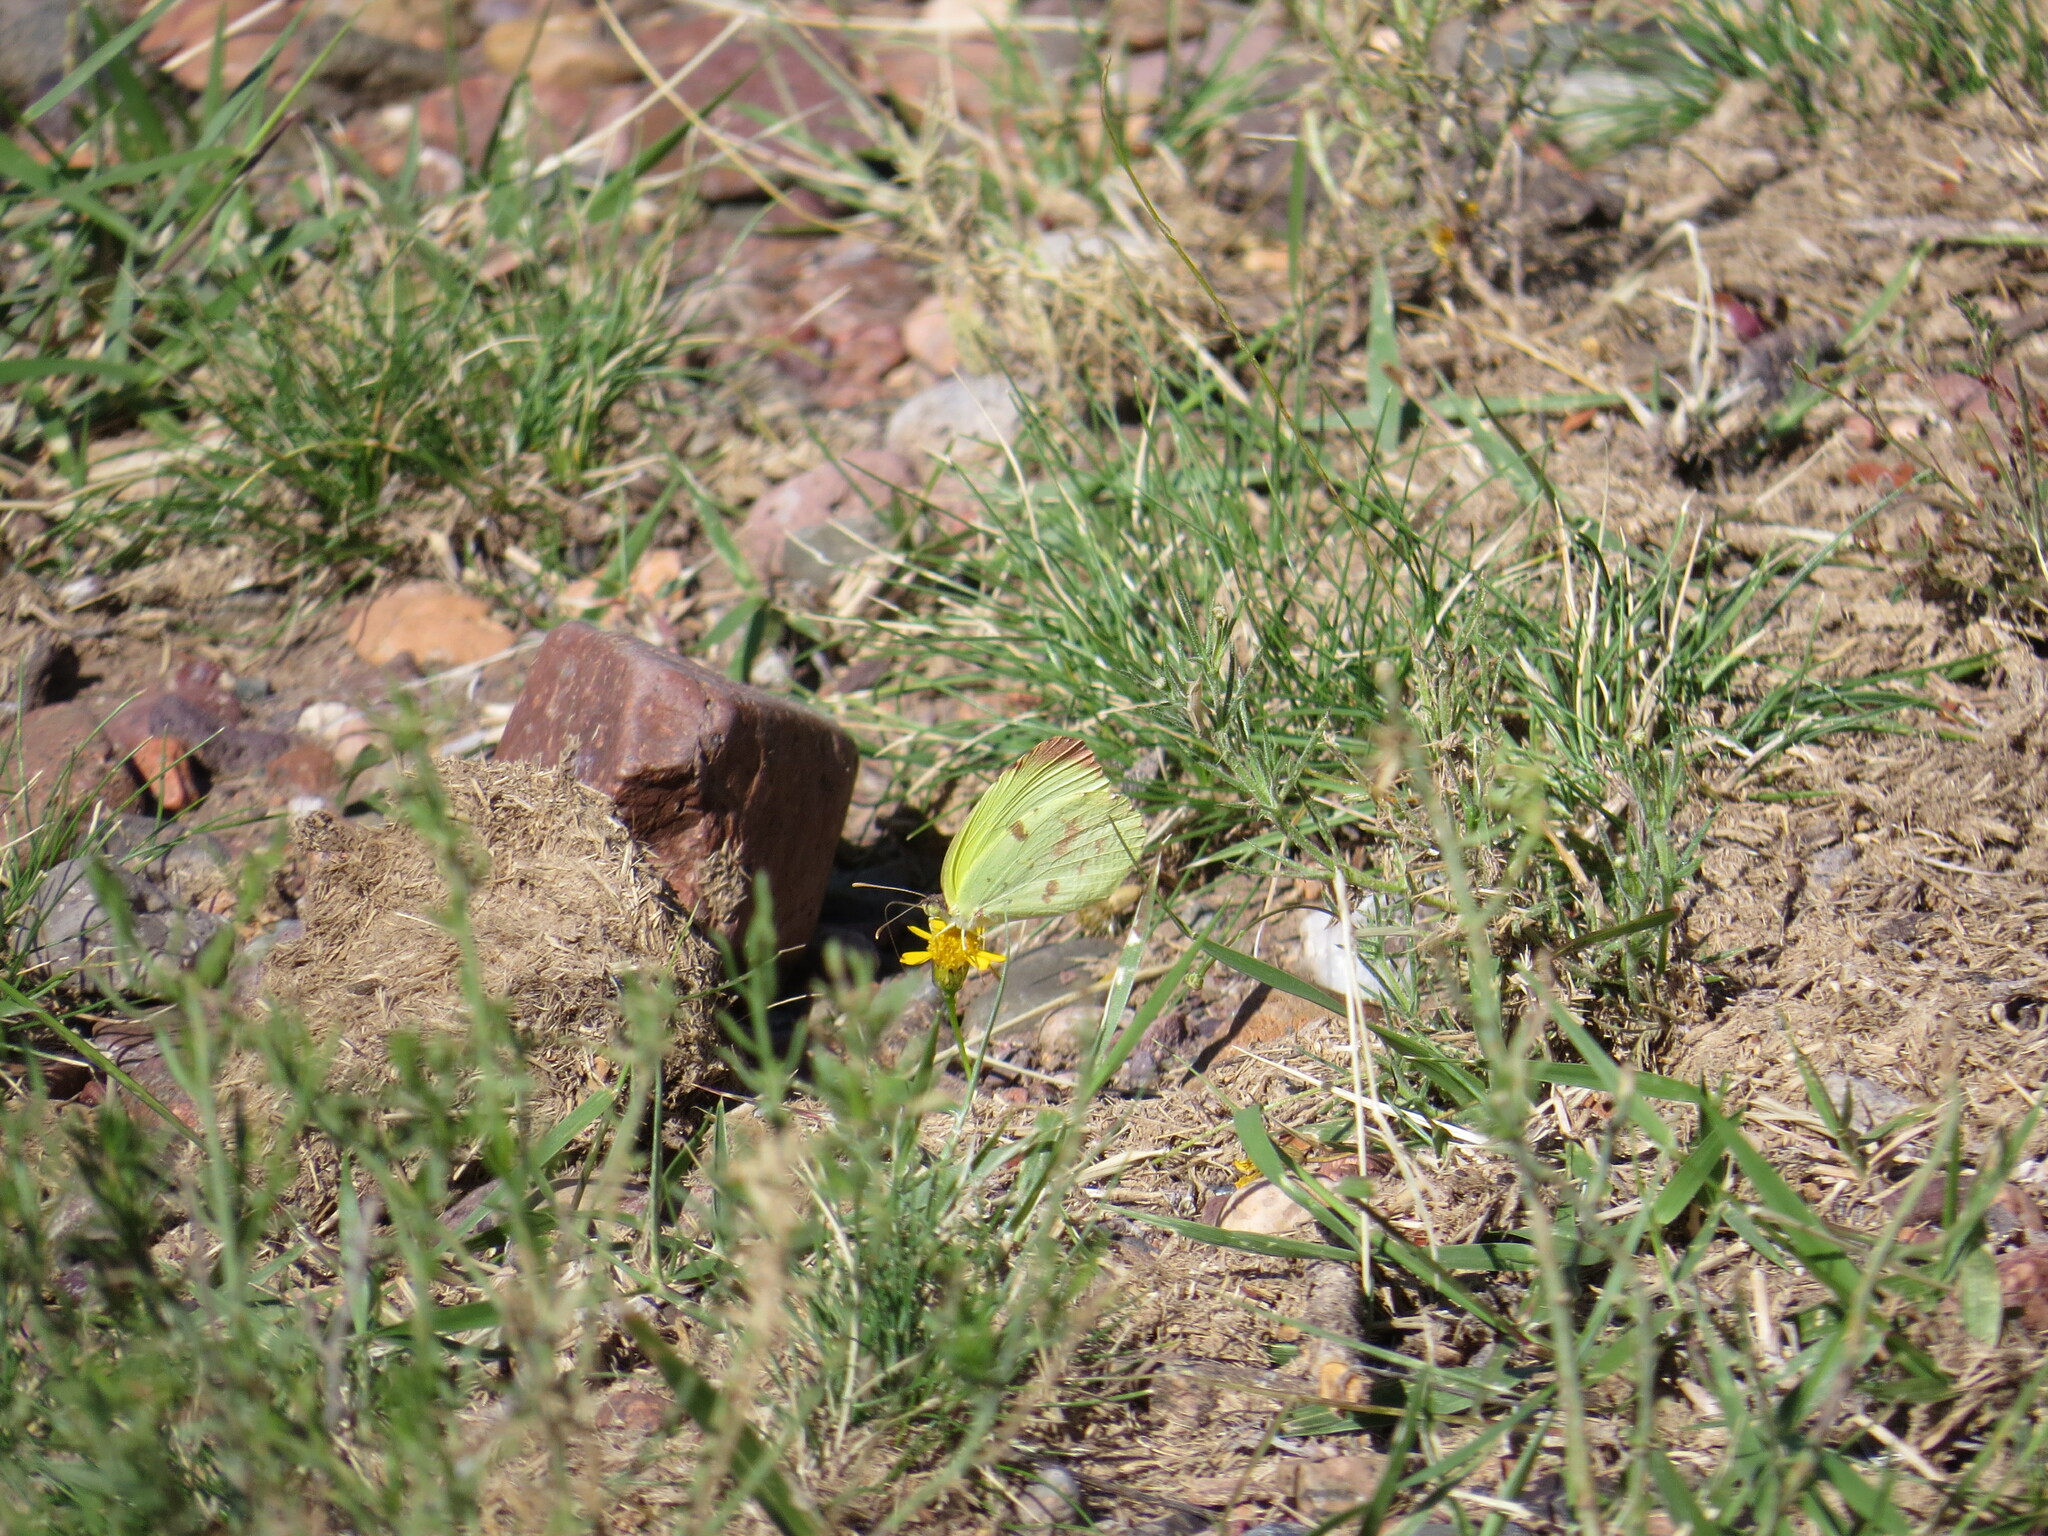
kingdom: Animalia
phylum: Arthropoda
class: Insecta
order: Lepidoptera
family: Pieridae
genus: Teriocolias
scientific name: Teriocolias
